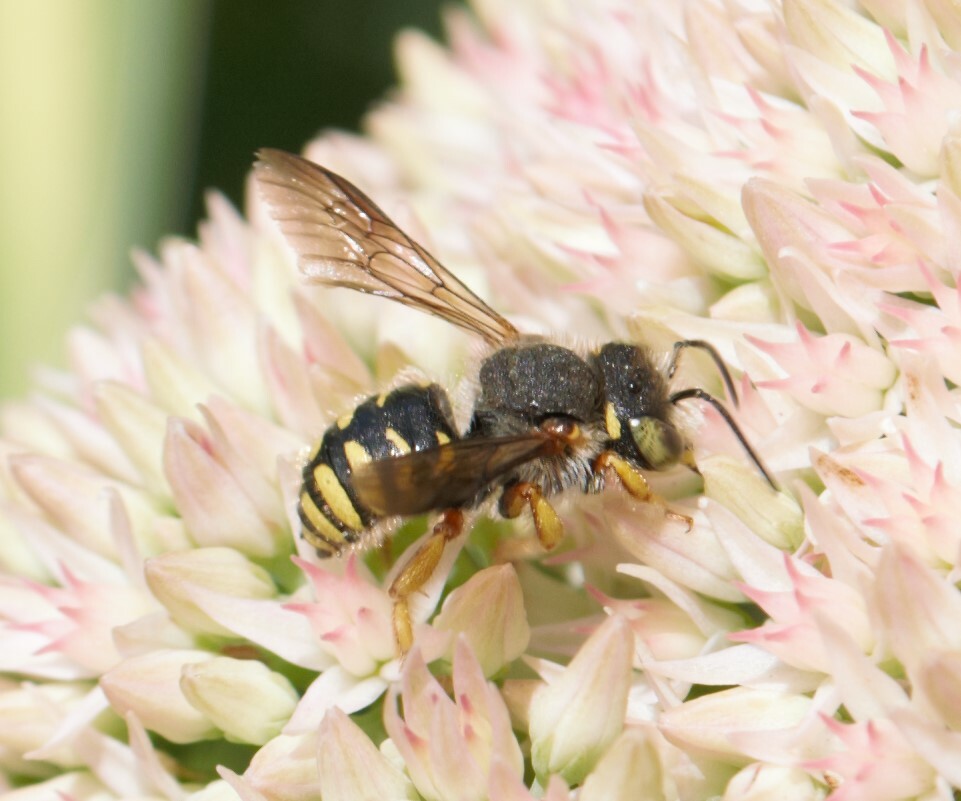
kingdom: Animalia
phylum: Arthropoda
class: Insecta
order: Hymenoptera
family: Megachilidae
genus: Anthidium
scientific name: Anthidium oblongatum
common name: Oblong wool carder bee
